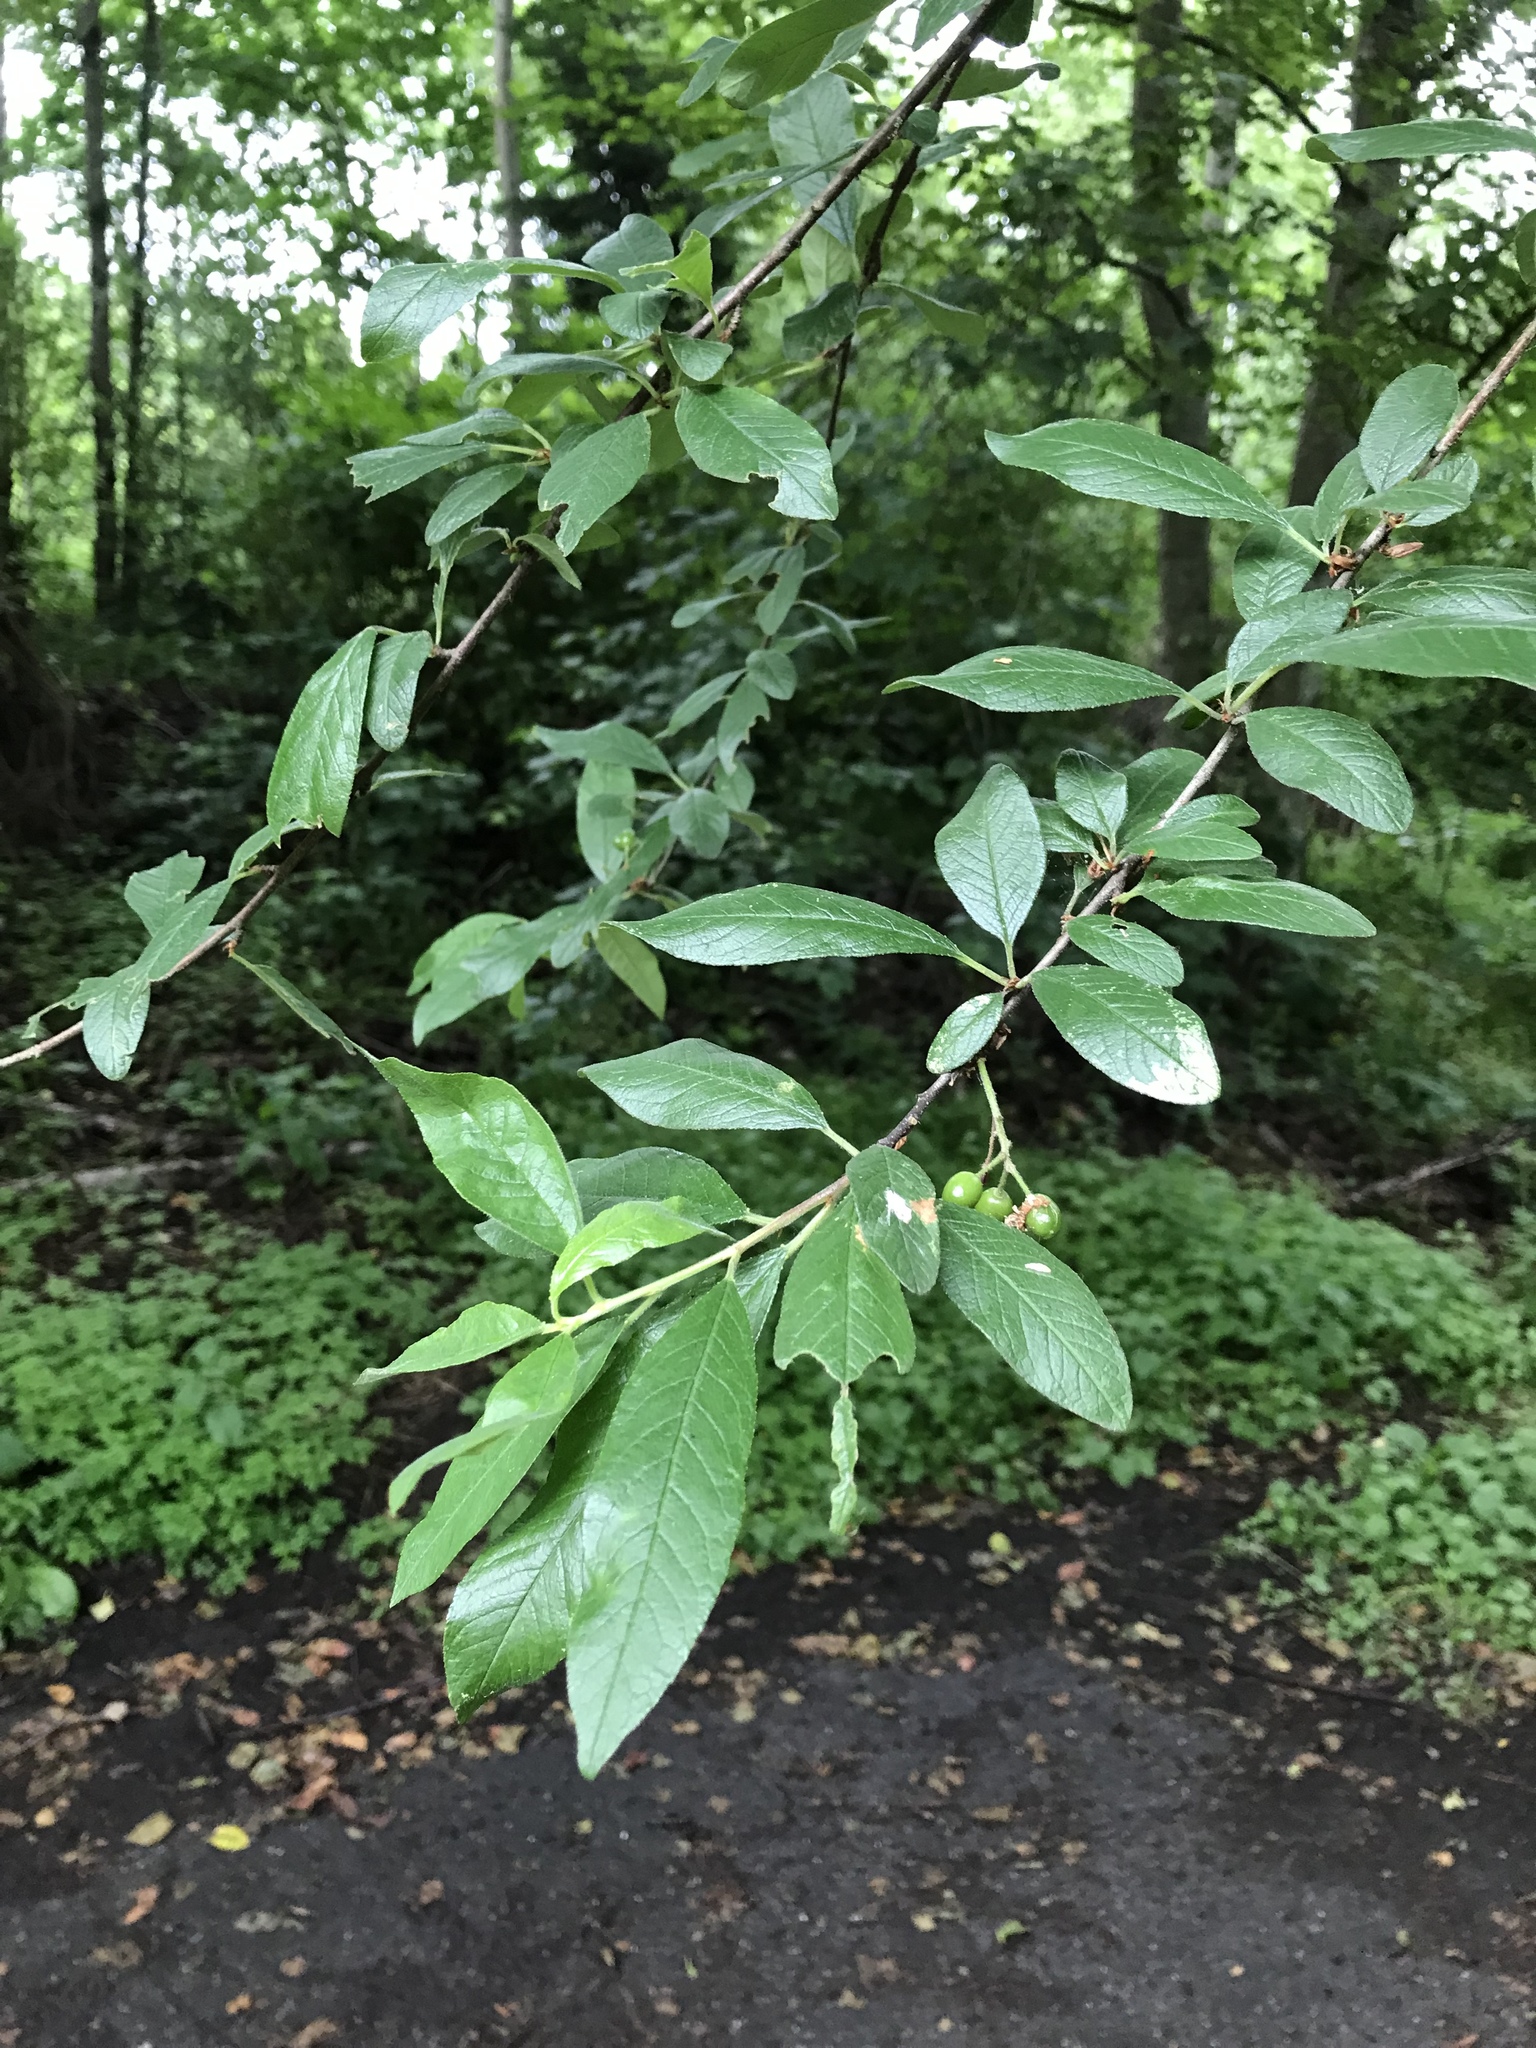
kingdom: Plantae
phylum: Tracheophyta
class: Magnoliopsida
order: Rosales
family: Rosaceae
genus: Prunus
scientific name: Prunus emarginata
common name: Bitter cherry
